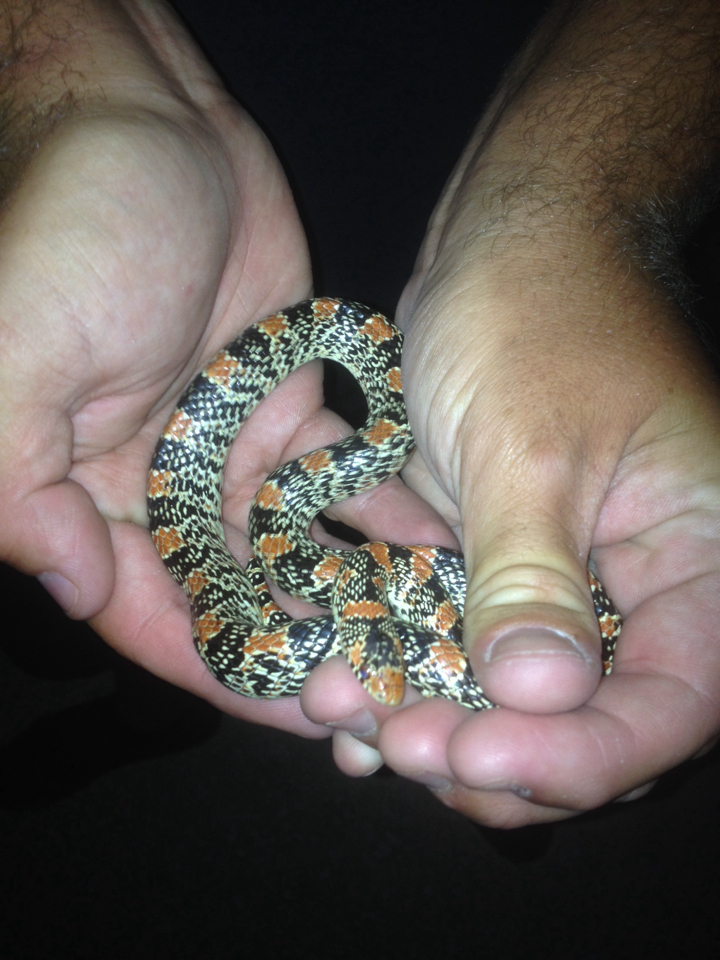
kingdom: Animalia
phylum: Chordata
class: Squamata
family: Colubridae
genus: Rhinocheilus
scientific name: Rhinocheilus lecontei
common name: Longnose snake
